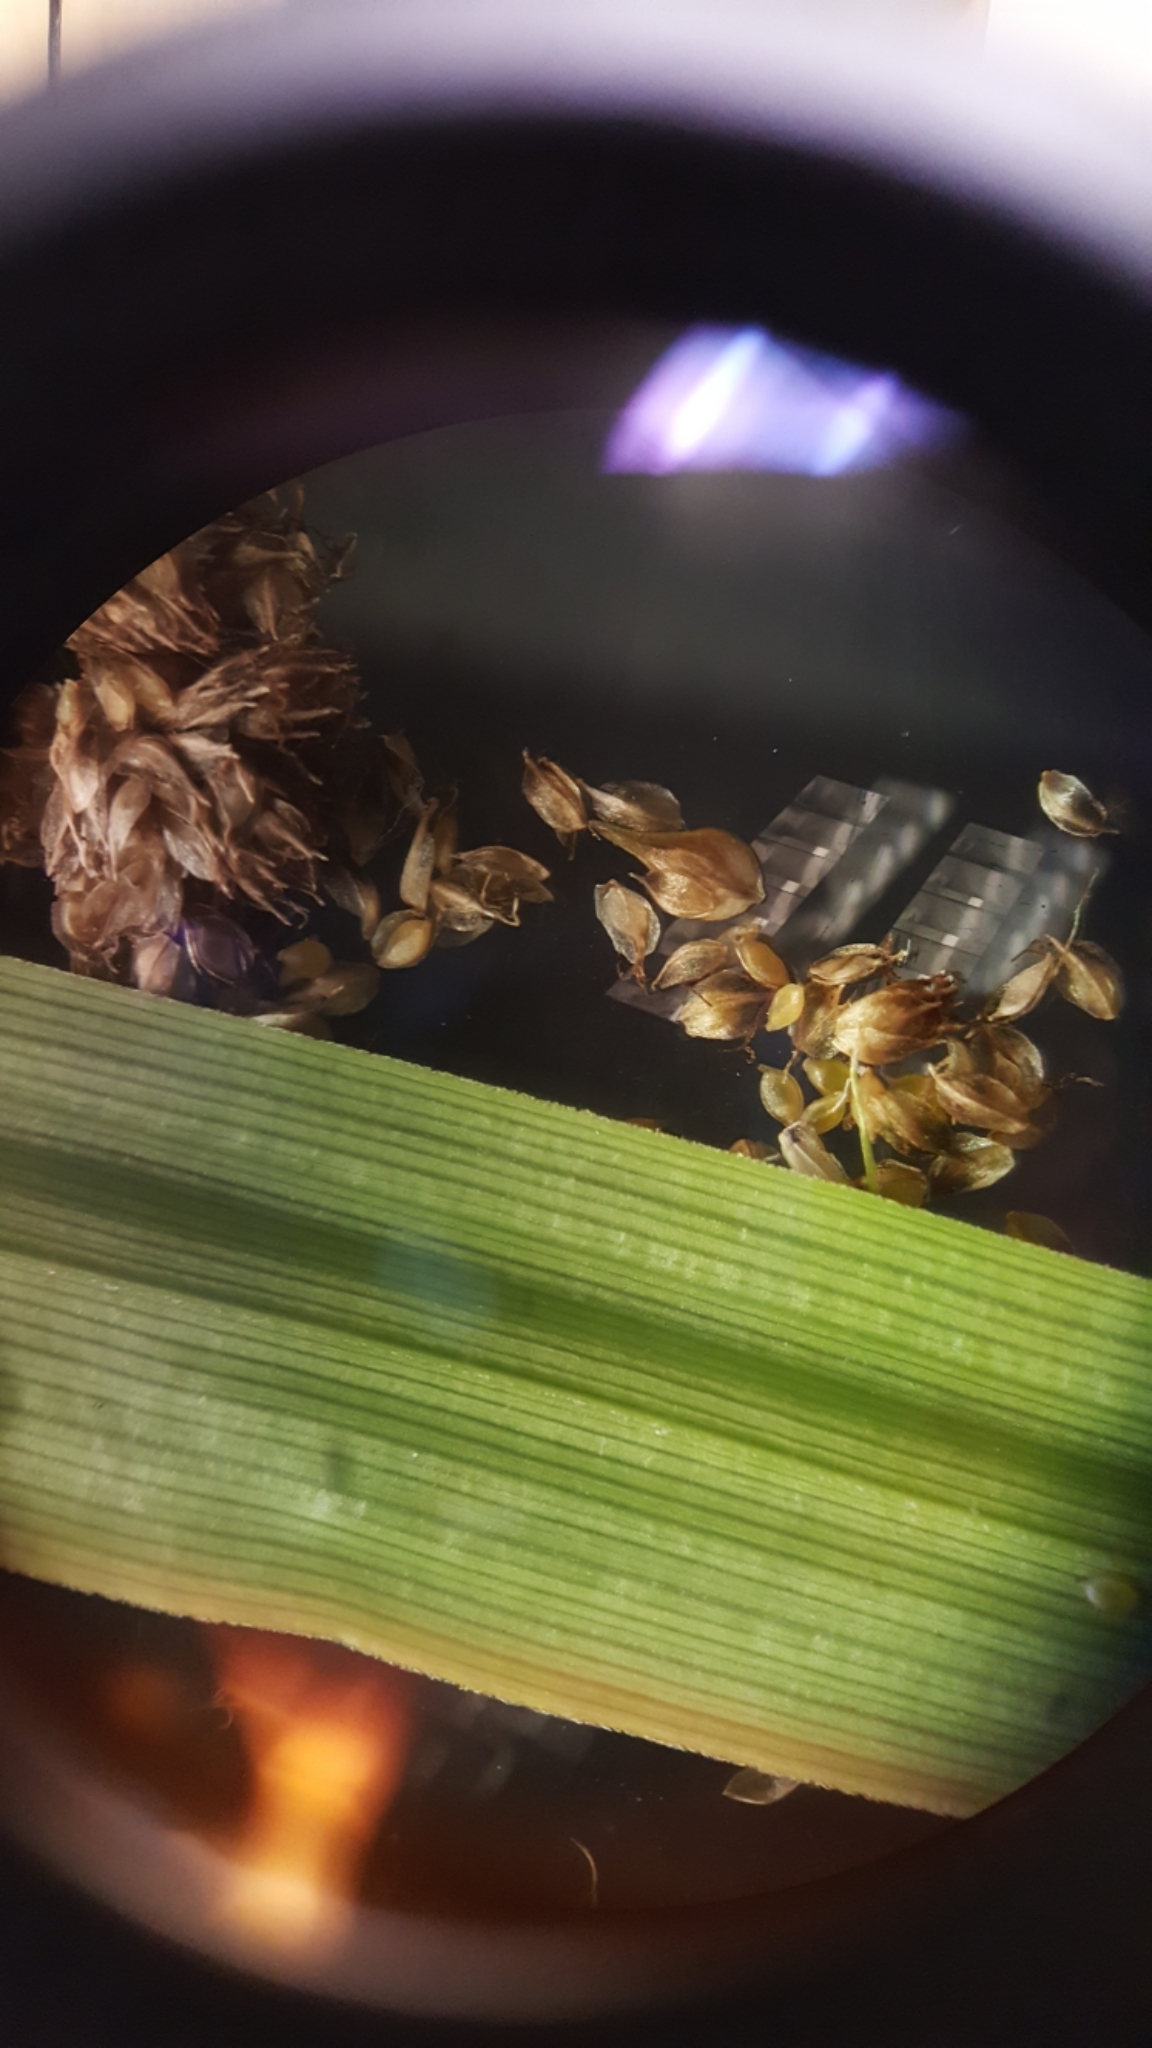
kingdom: Plantae
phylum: Tracheophyta
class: Liliopsida
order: Poales
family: Cyperaceae
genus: Scirpus
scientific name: Scirpus georgianus
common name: Bristleless dark-green bulrush
